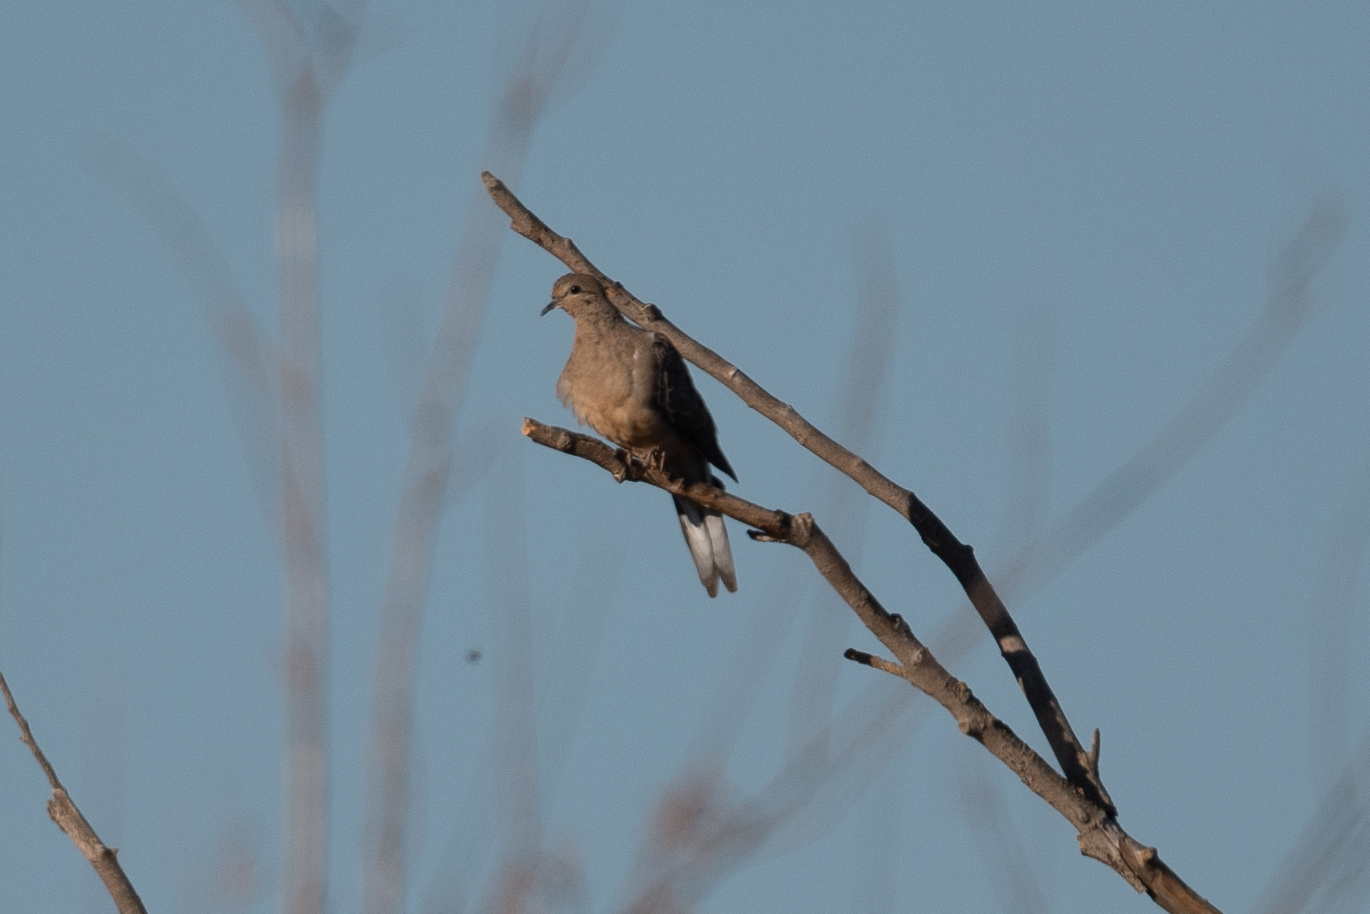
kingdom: Animalia
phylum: Chordata
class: Aves
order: Columbiformes
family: Columbidae
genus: Zenaida
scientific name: Zenaida macroura
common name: Mourning dove
